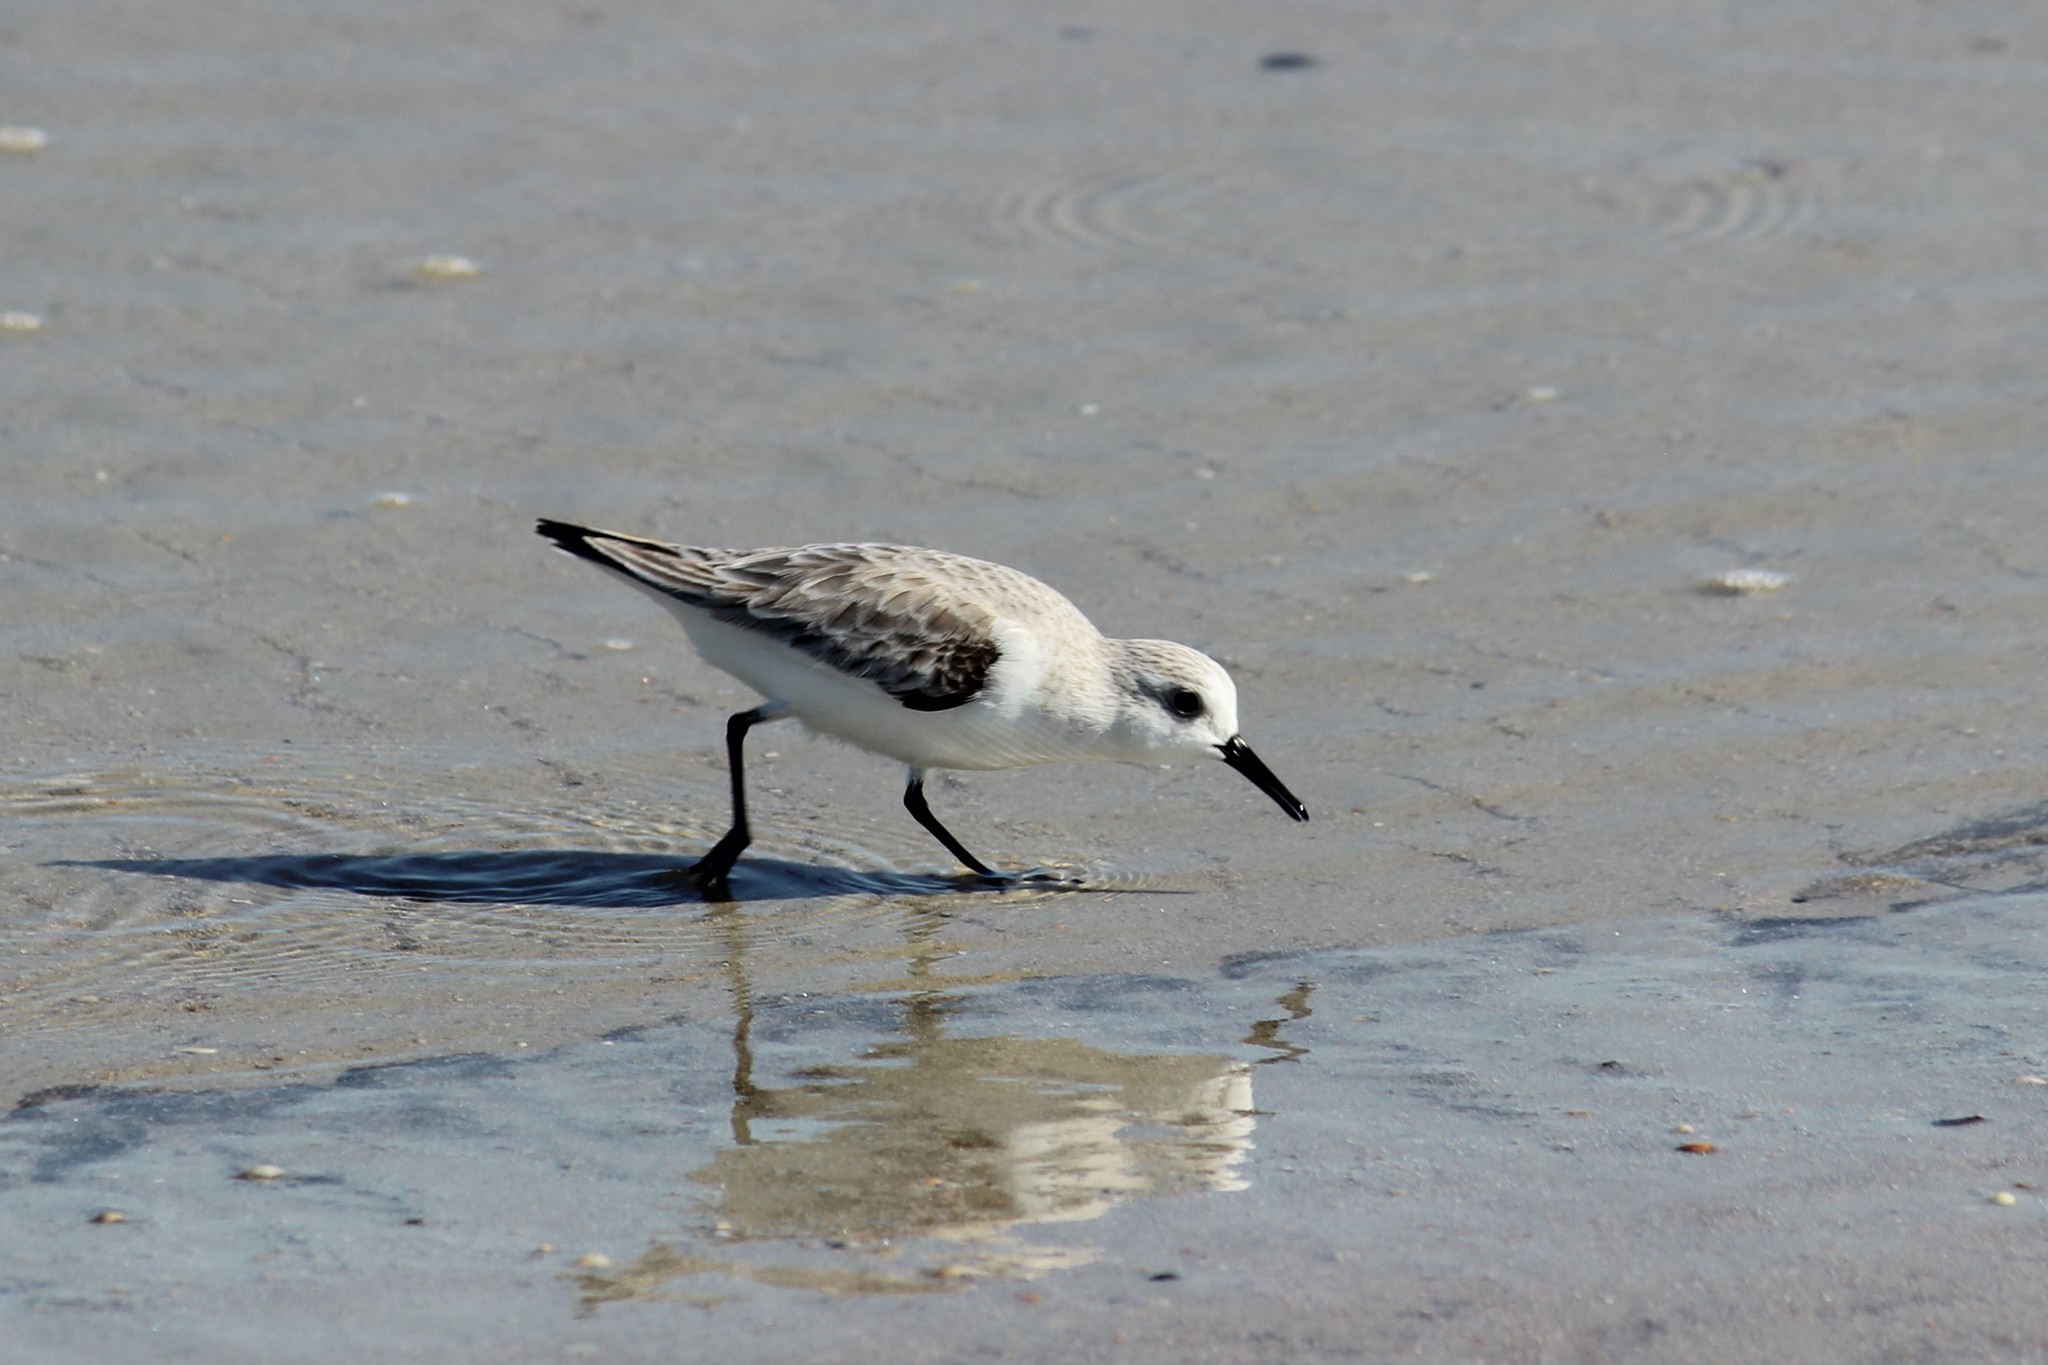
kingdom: Animalia
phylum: Chordata
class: Aves
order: Charadriiformes
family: Scolopacidae
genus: Calidris
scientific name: Calidris alba
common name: Sanderling
